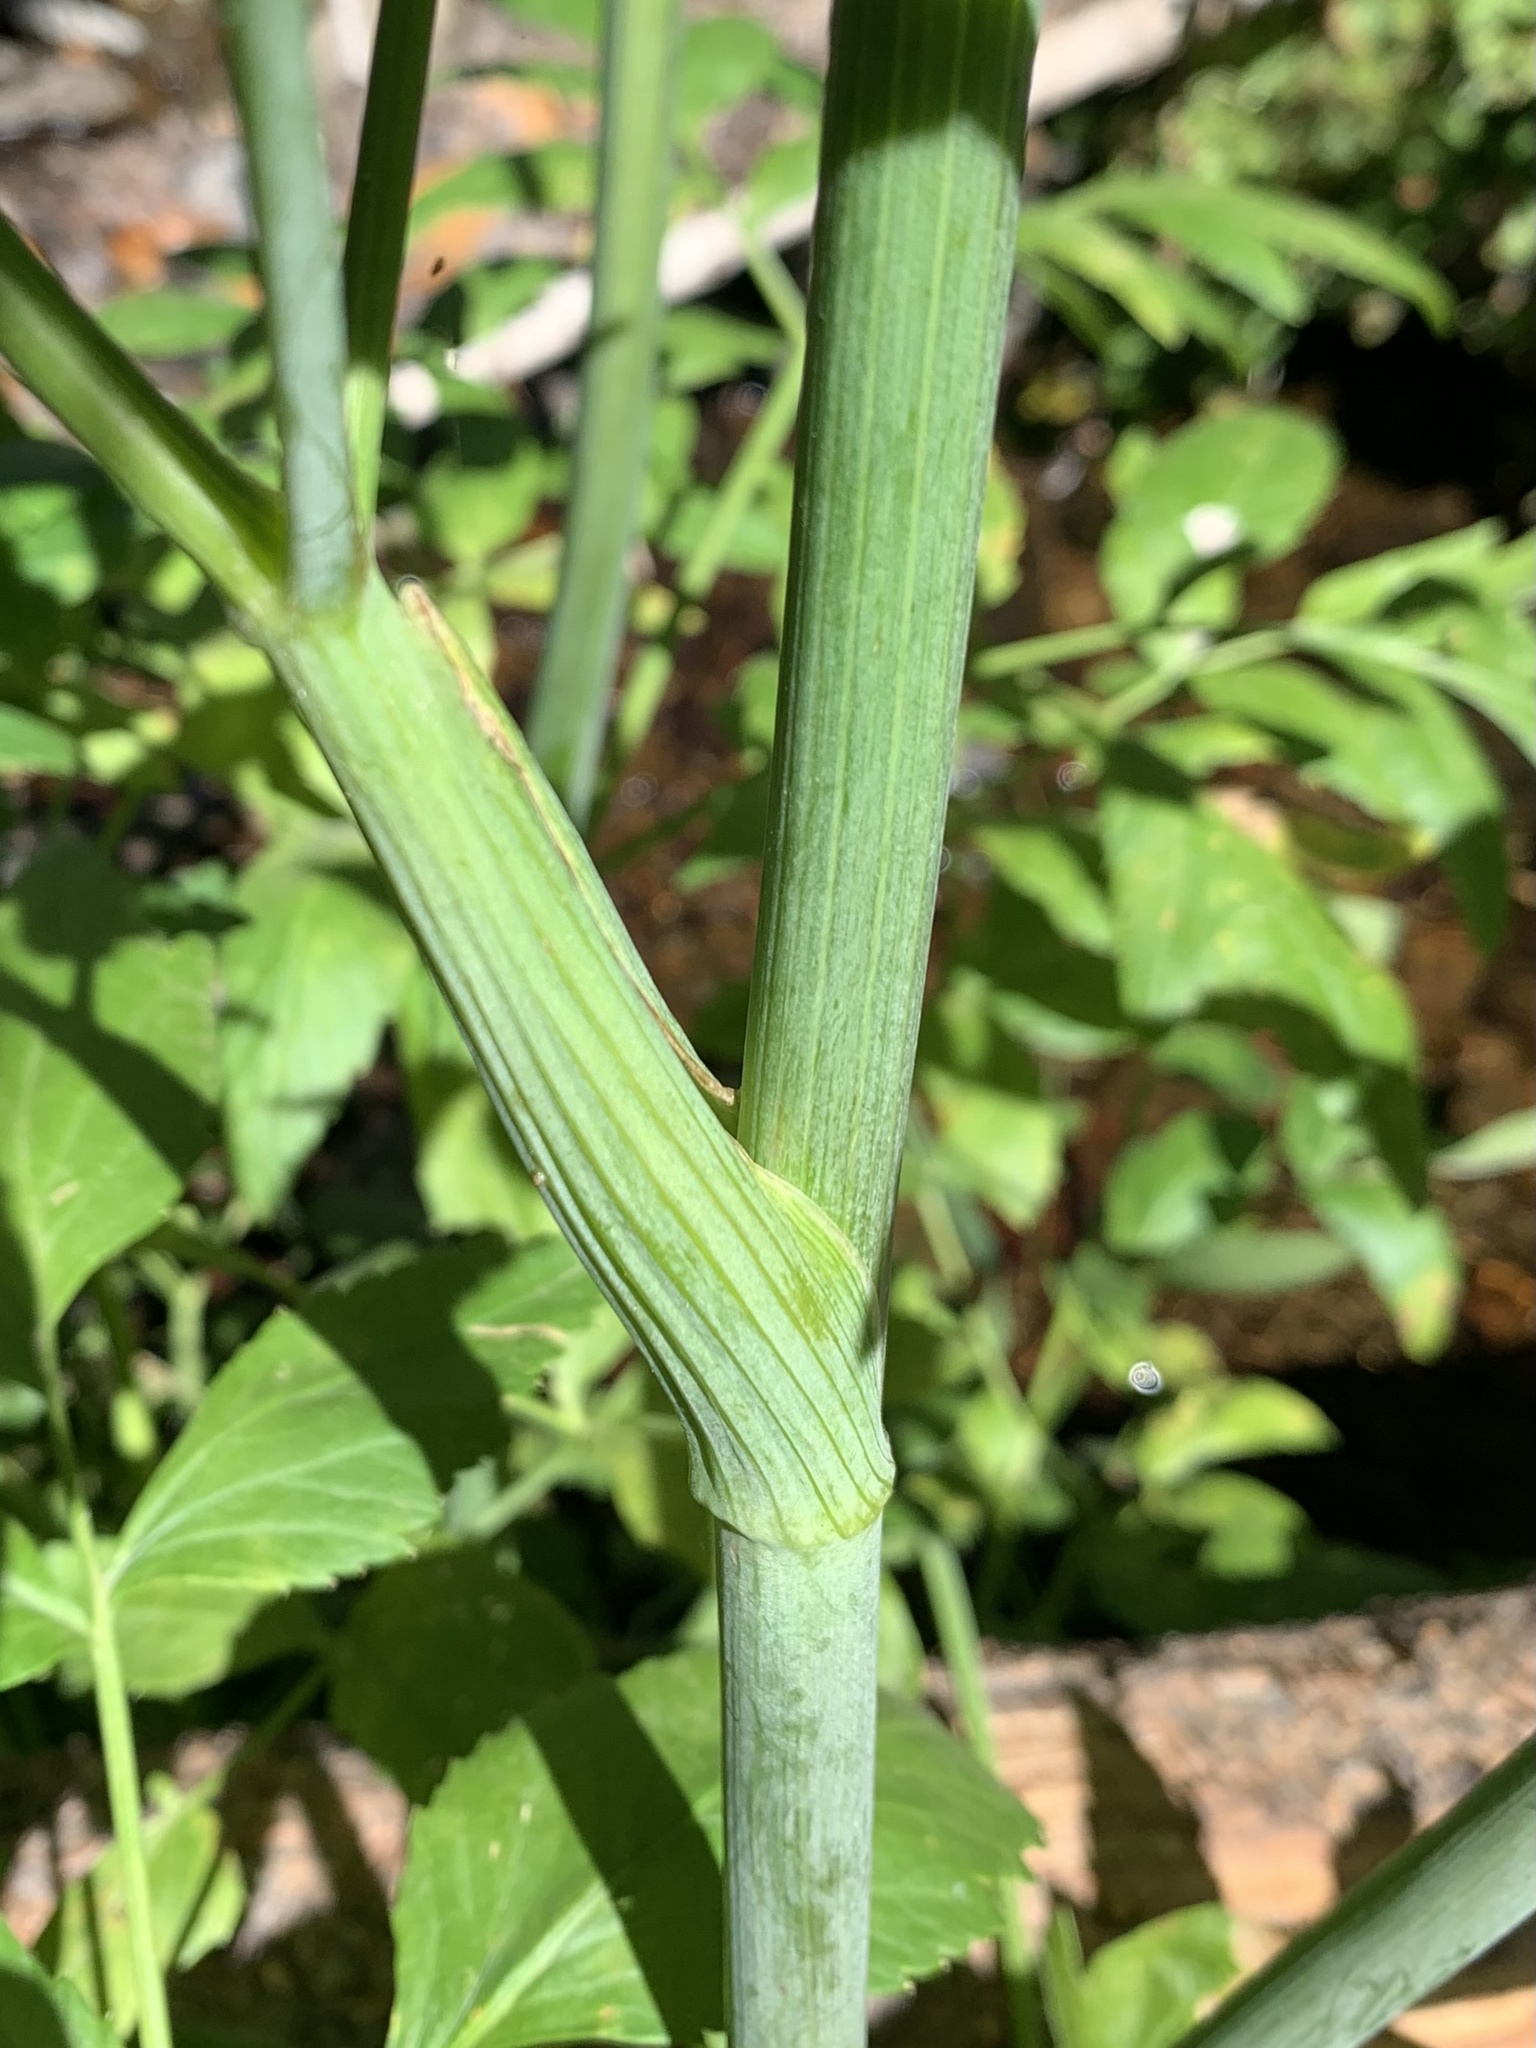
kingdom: Plantae
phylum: Tracheophyta
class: Magnoliopsida
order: Apiales
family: Apiaceae
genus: Angelica
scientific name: Angelica arguta
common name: Lyall's angelica
